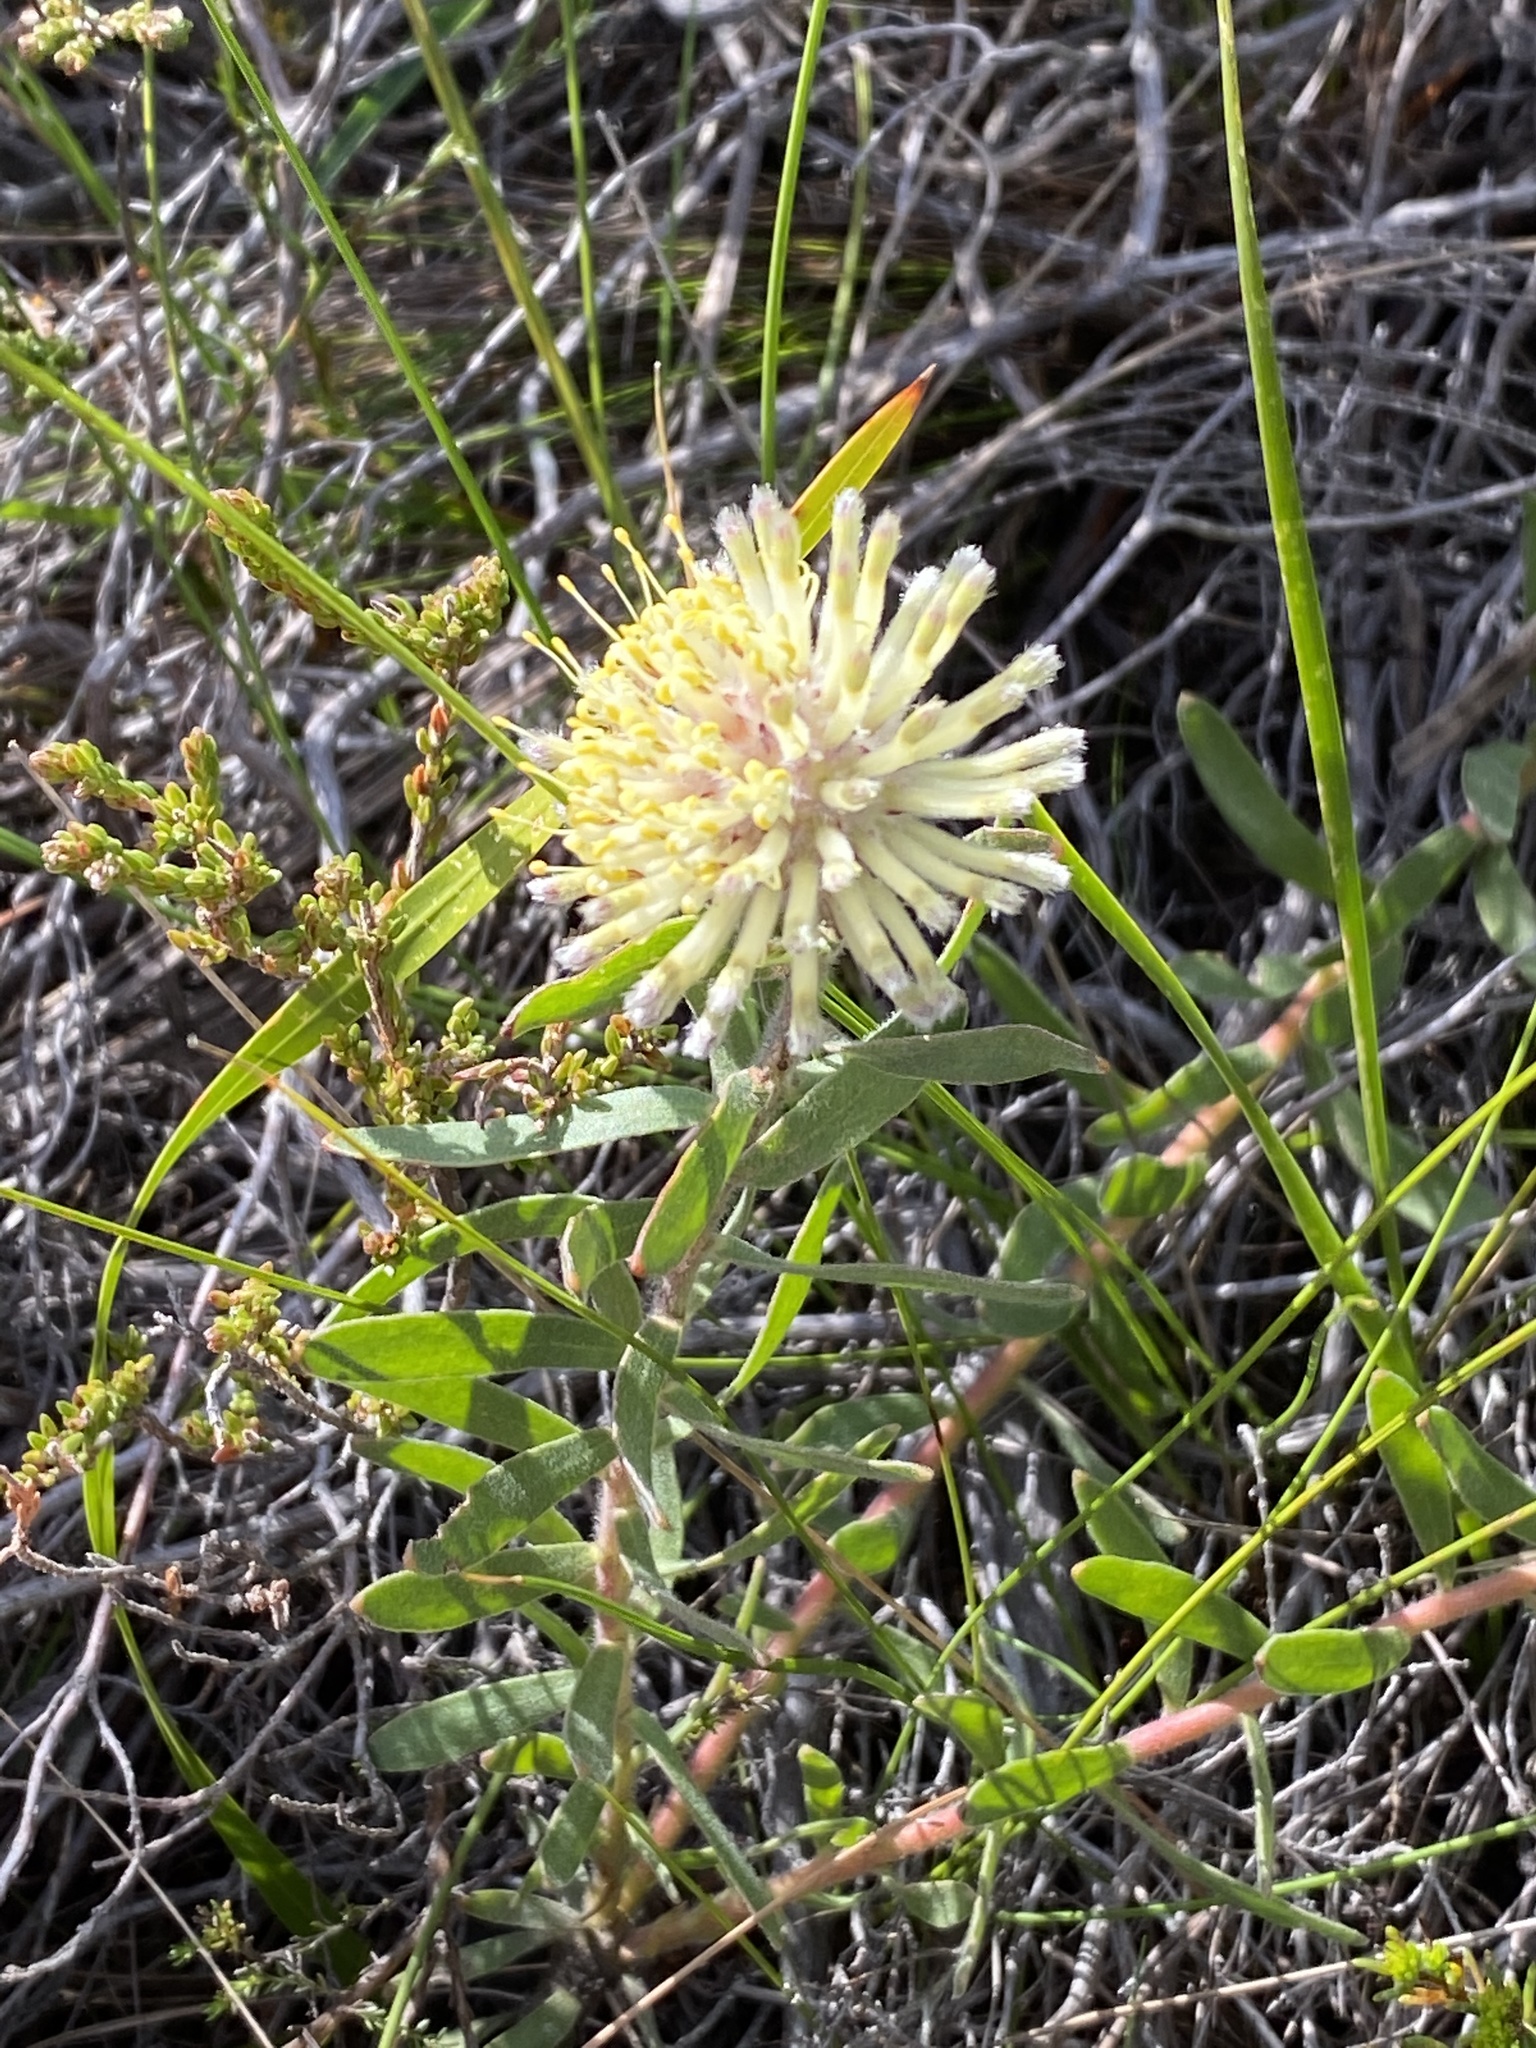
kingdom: Plantae
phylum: Tracheophyta
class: Magnoliopsida
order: Proteales
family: Proteaceae
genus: Leucospermum
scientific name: Leucospermum pedunculatum
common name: White-trailing pincushion
